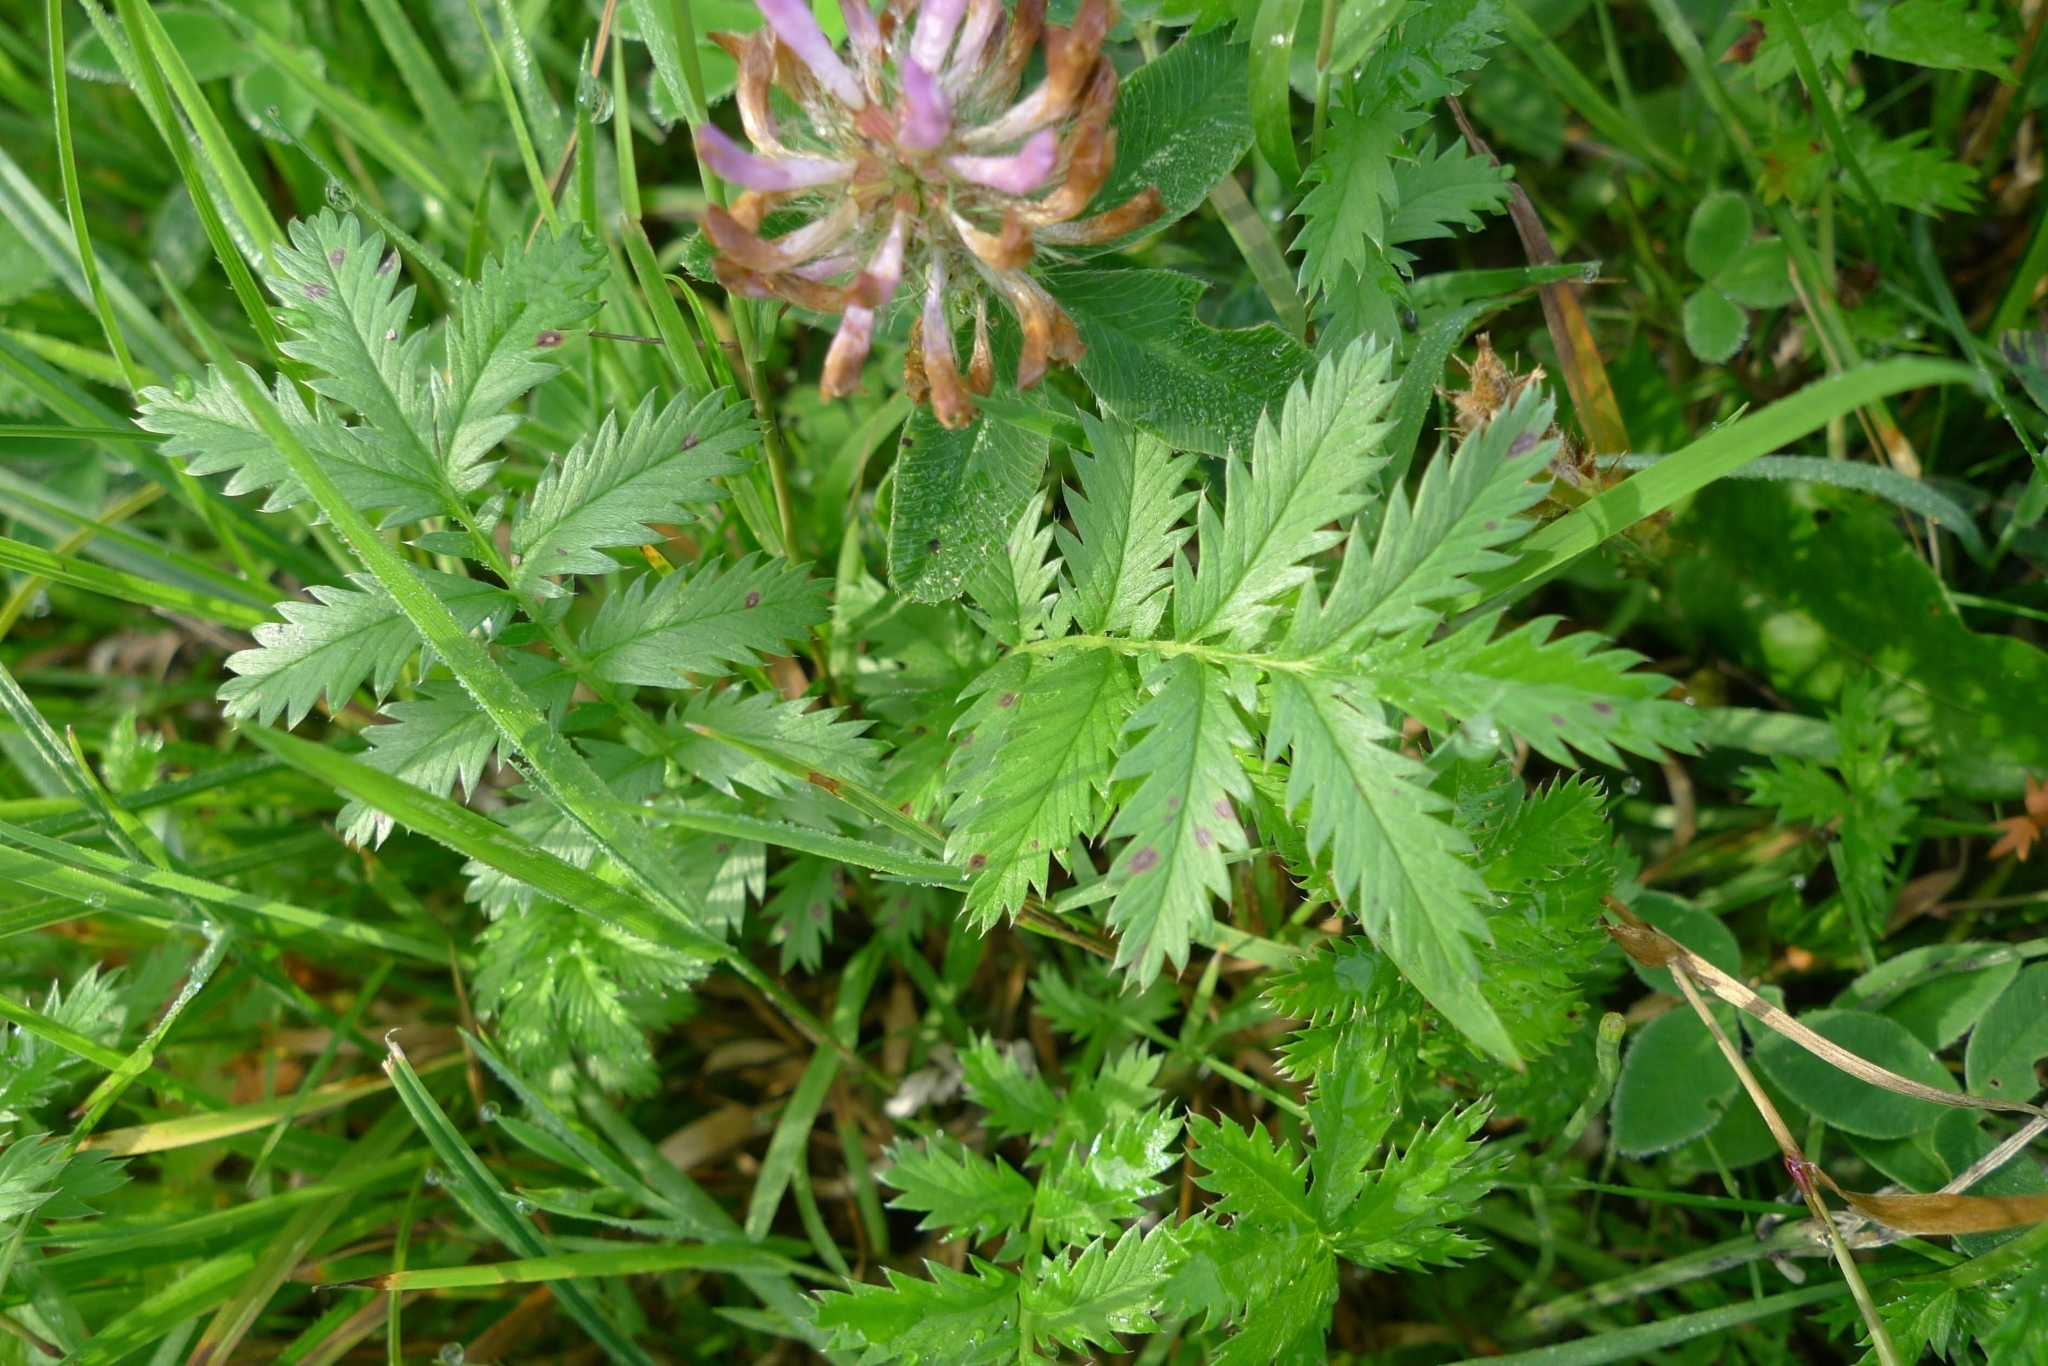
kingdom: Plantae
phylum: Tracheophyta
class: Magnoliopsida
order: Rosales
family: Rosaceae
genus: Argentina
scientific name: Argentina anserina
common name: Common silverweed
